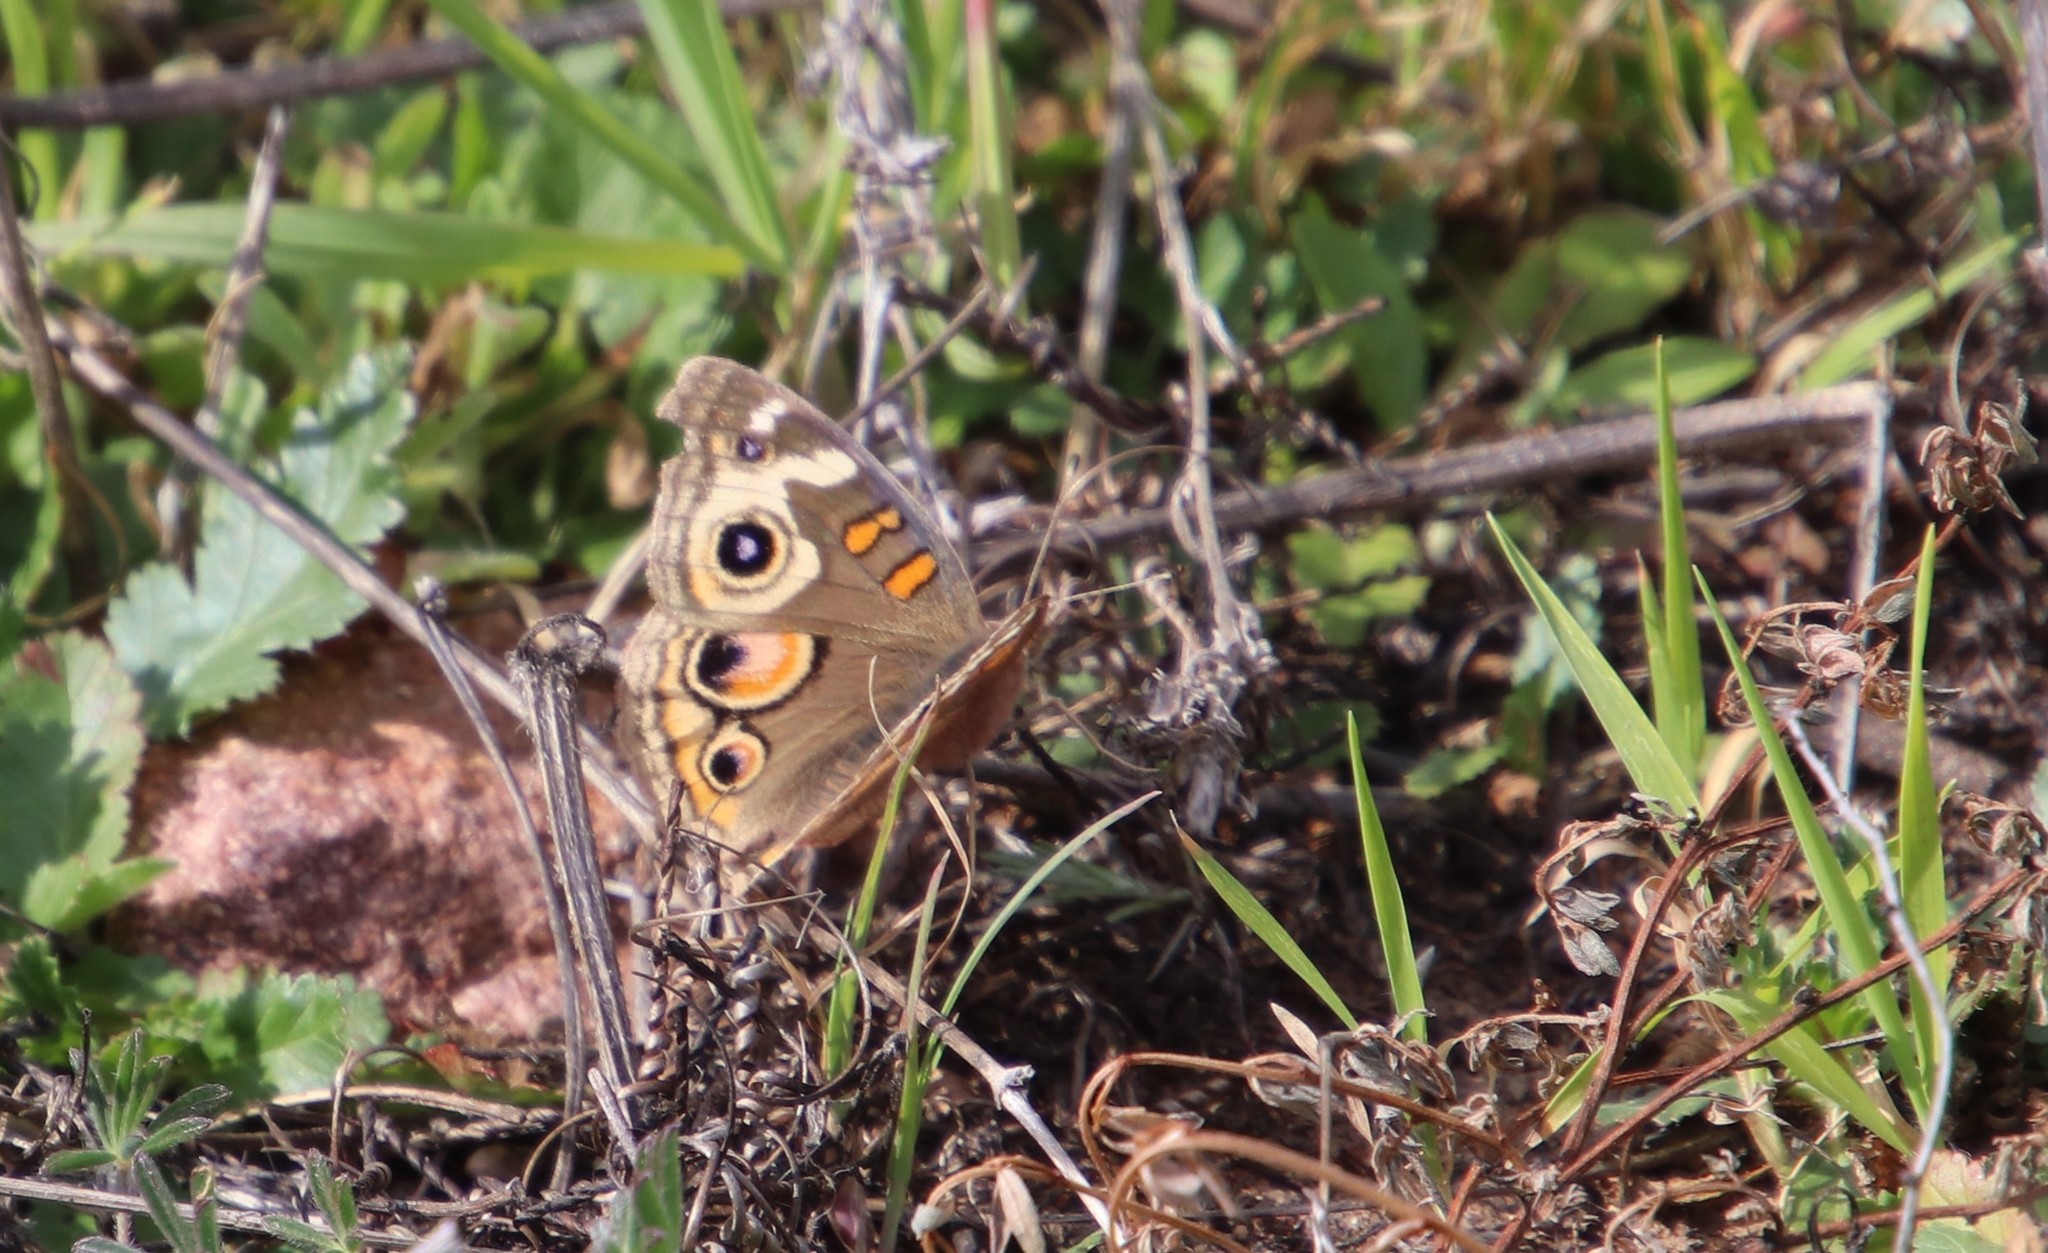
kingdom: Animalia
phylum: Arthropoda
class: Insecta
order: Lepidoptera
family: Nymphalidae
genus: Junonia
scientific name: Junonia grisea
